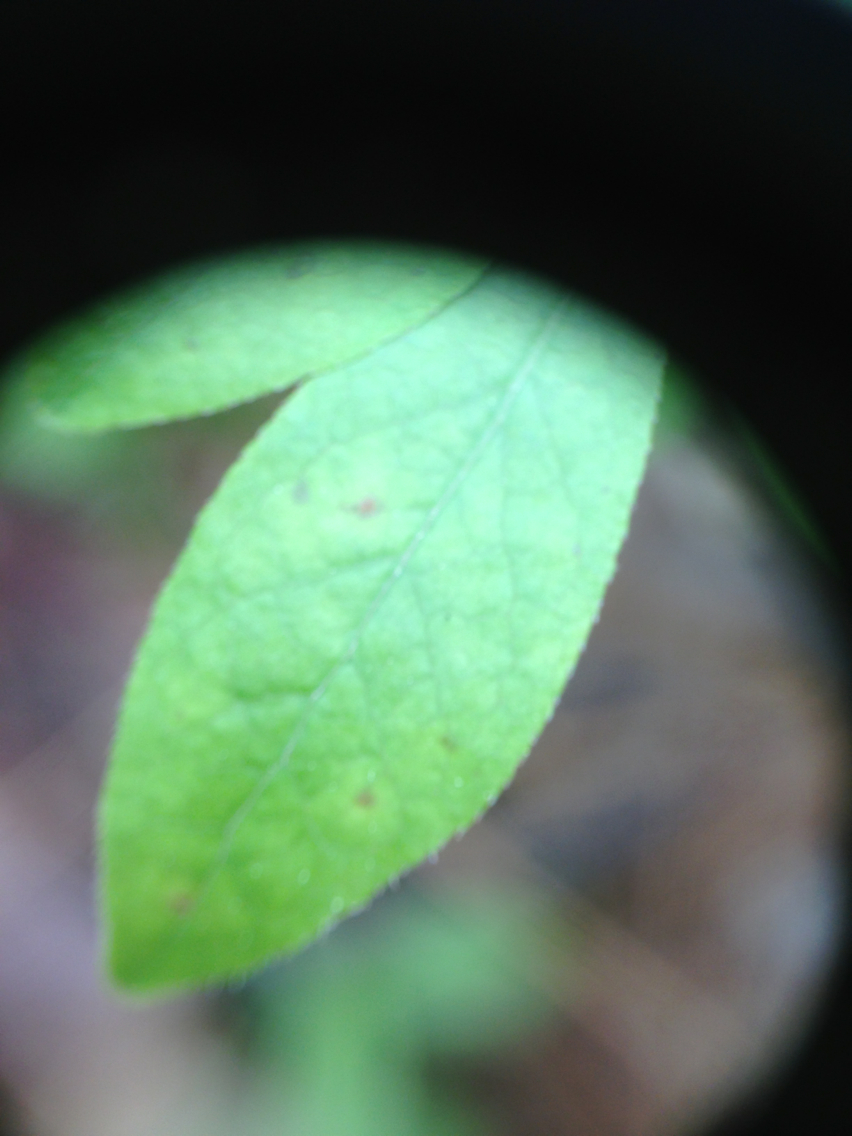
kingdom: Plantae
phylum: Tracheophyta
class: Magnoliopsida
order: Ericales
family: Ericaceae
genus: Vaccinium
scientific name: Vaccinium angustifolium
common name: Early lowbush blueberry
